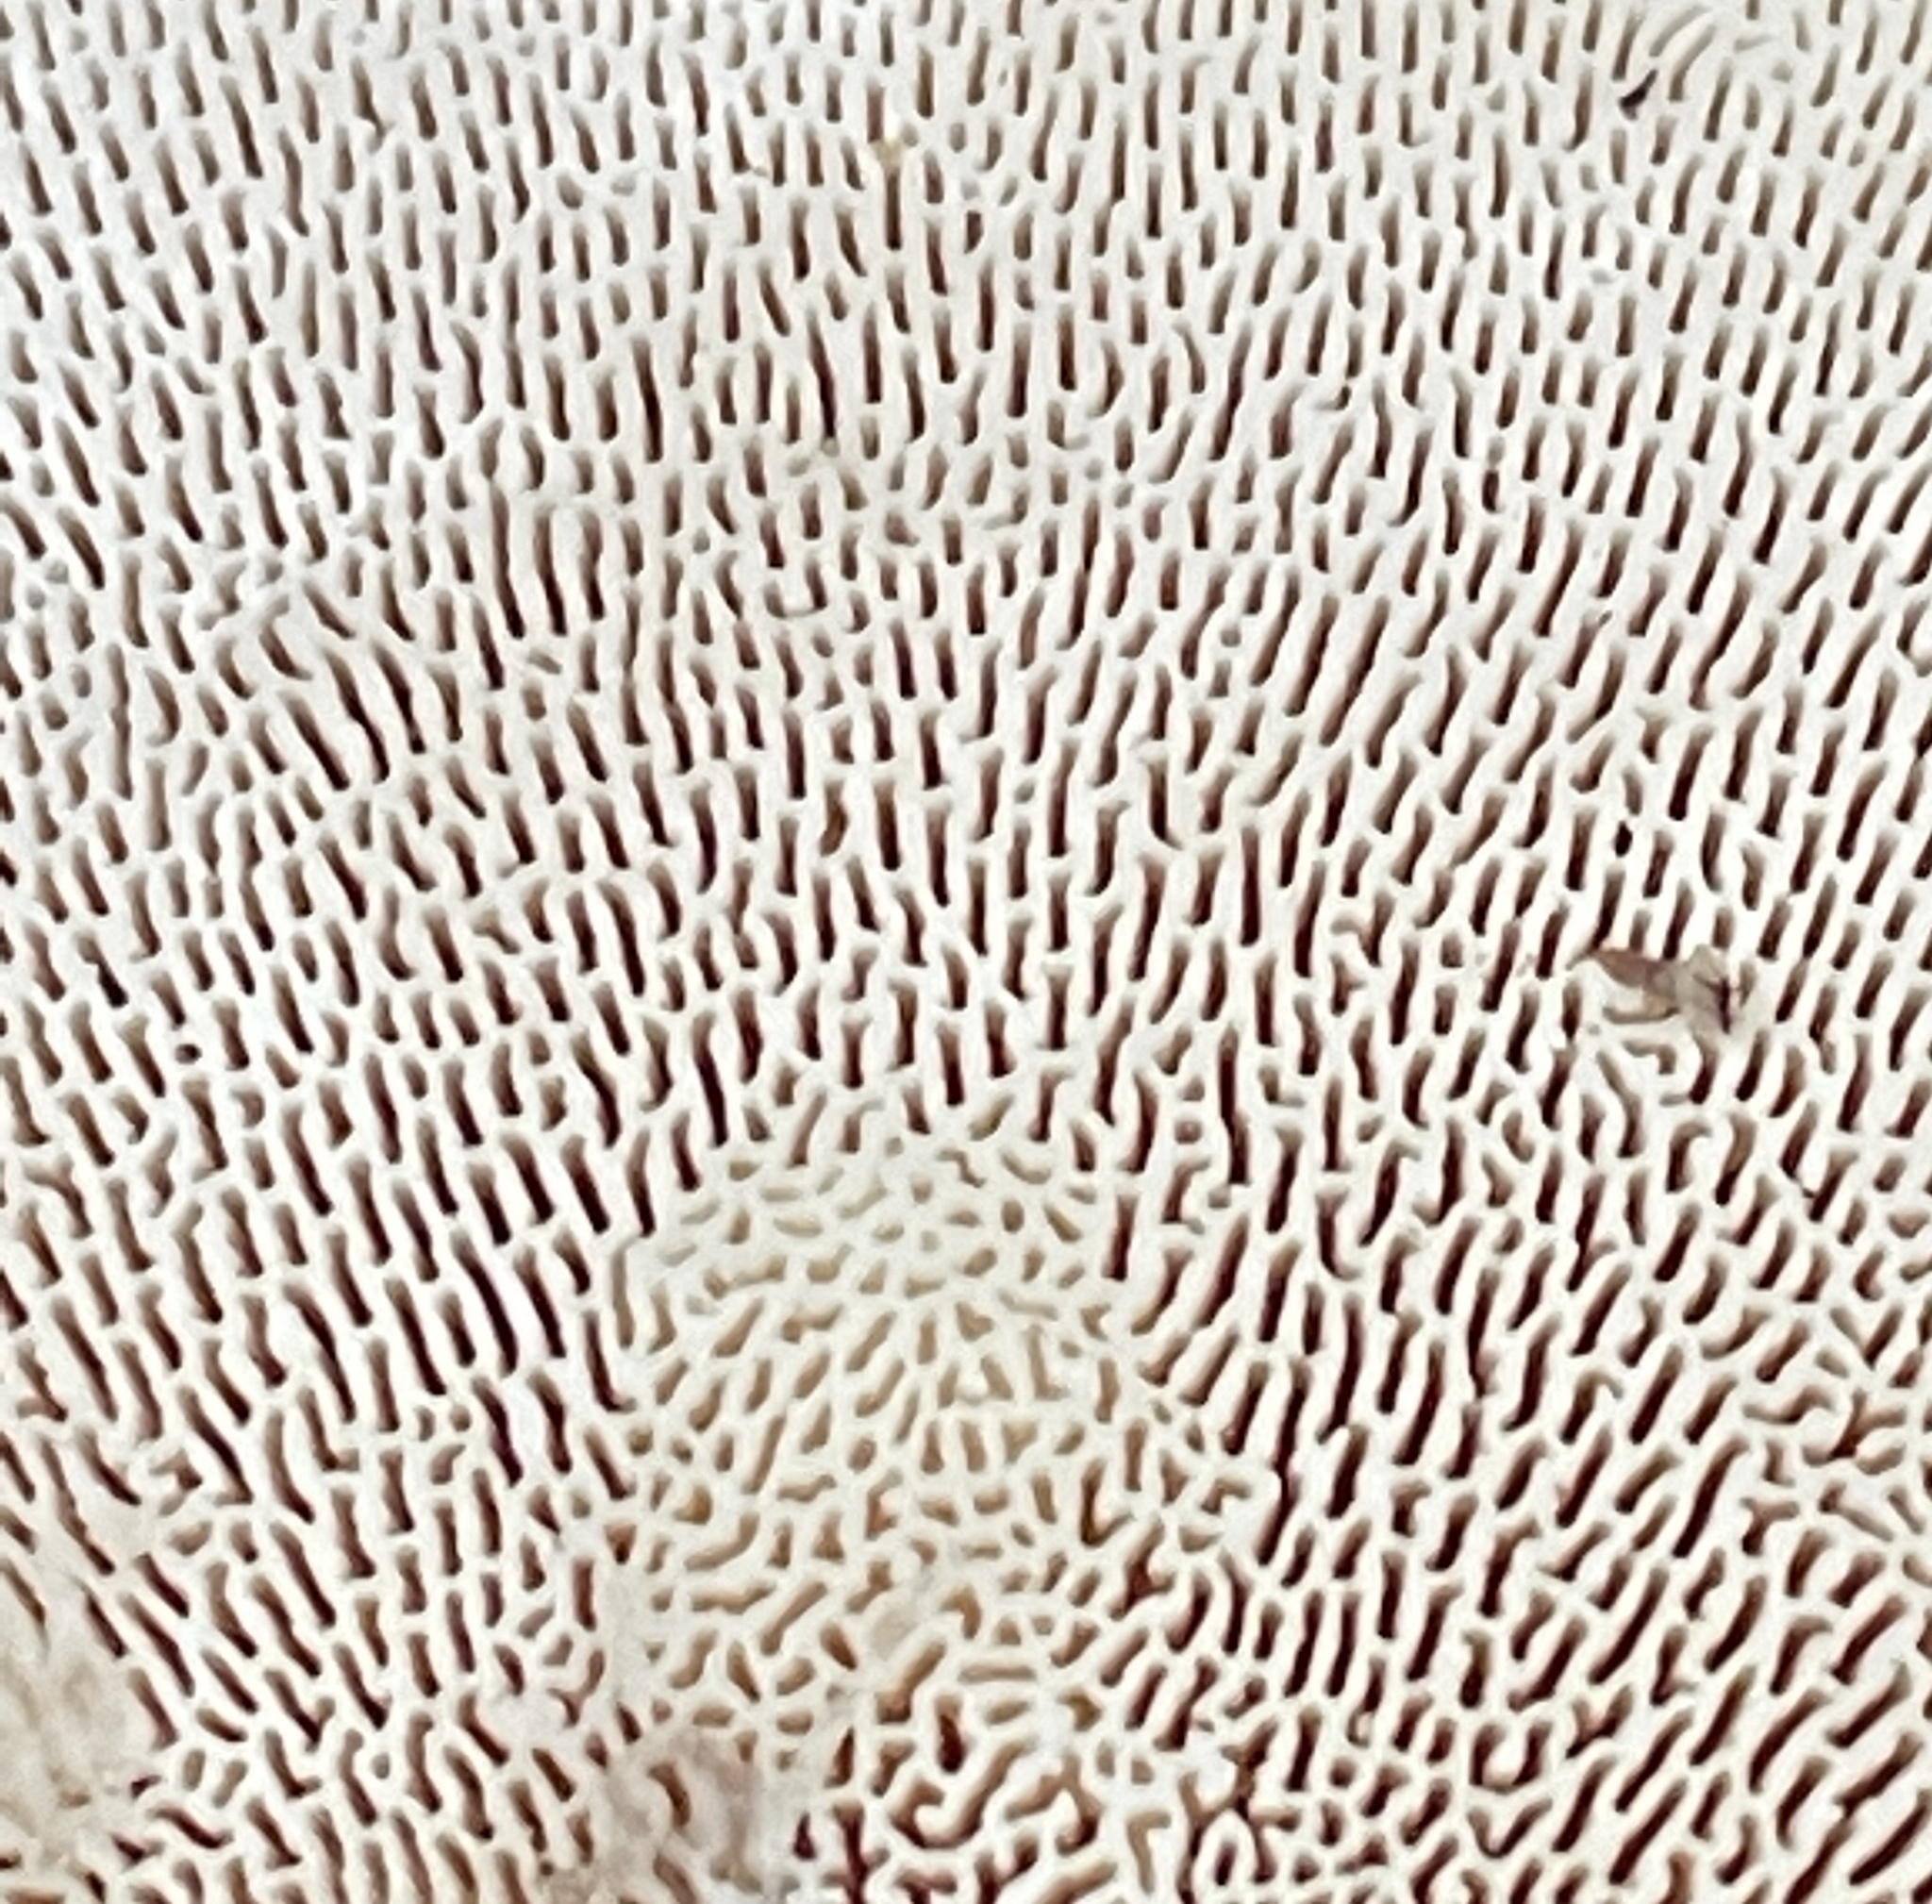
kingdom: Fungi
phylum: Basidiomycota
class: Agaricomycetes
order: Polyporales
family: Polyporaceae
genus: Trametes
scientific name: Trametes gibbosa
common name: Lumpy bracket
